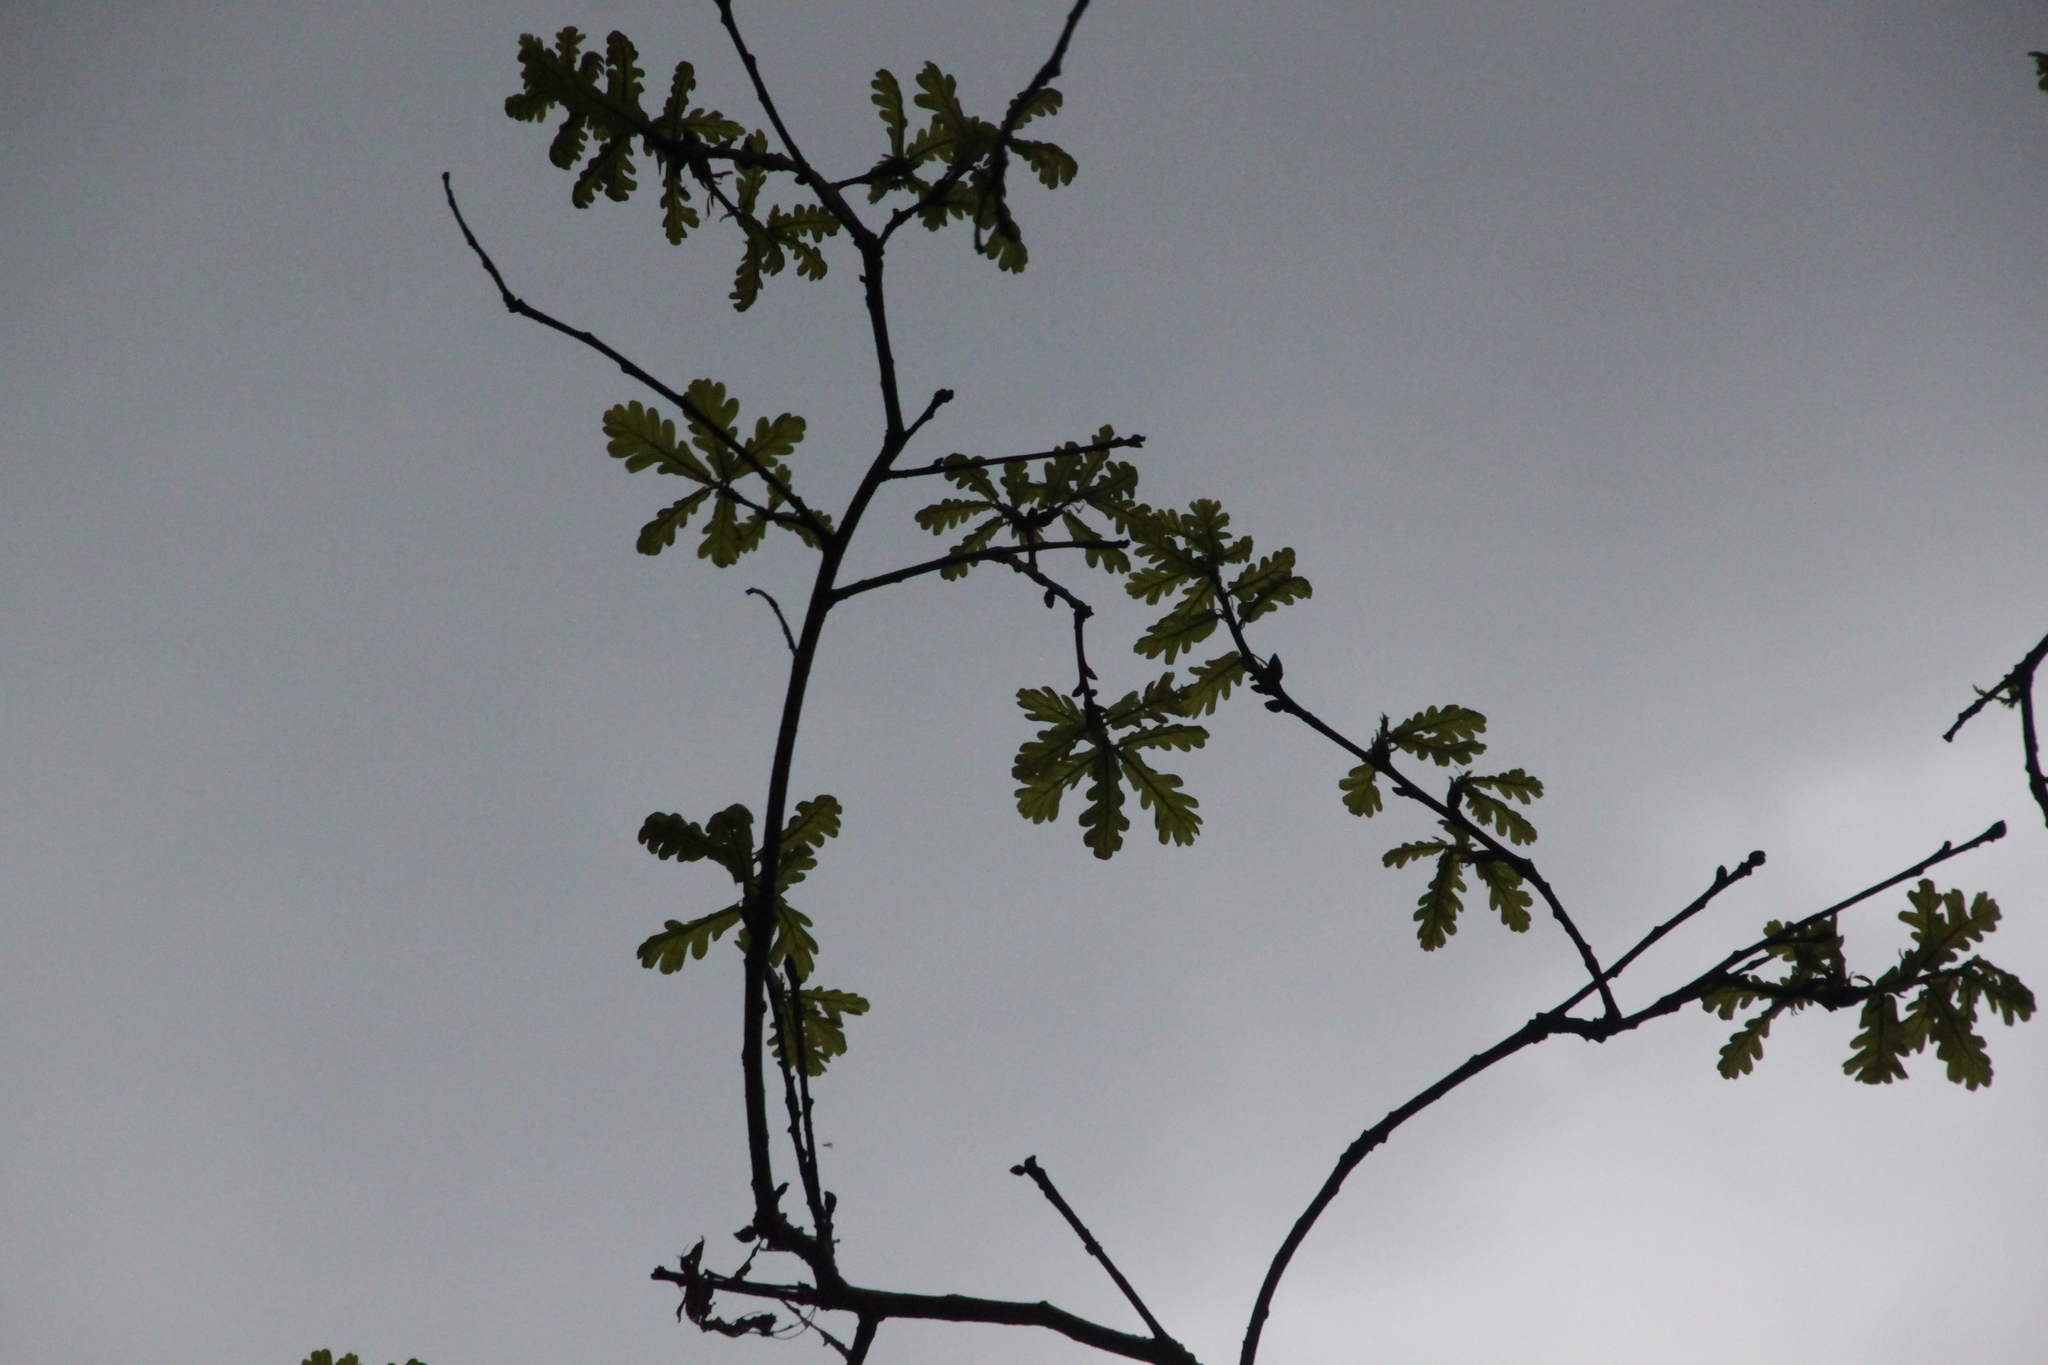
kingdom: Plantae
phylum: Tracheophyta
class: Magnoliopsida
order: Fagales
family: Fagaceae
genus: Quercus
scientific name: Quercus robur
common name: Pedunculate oak
